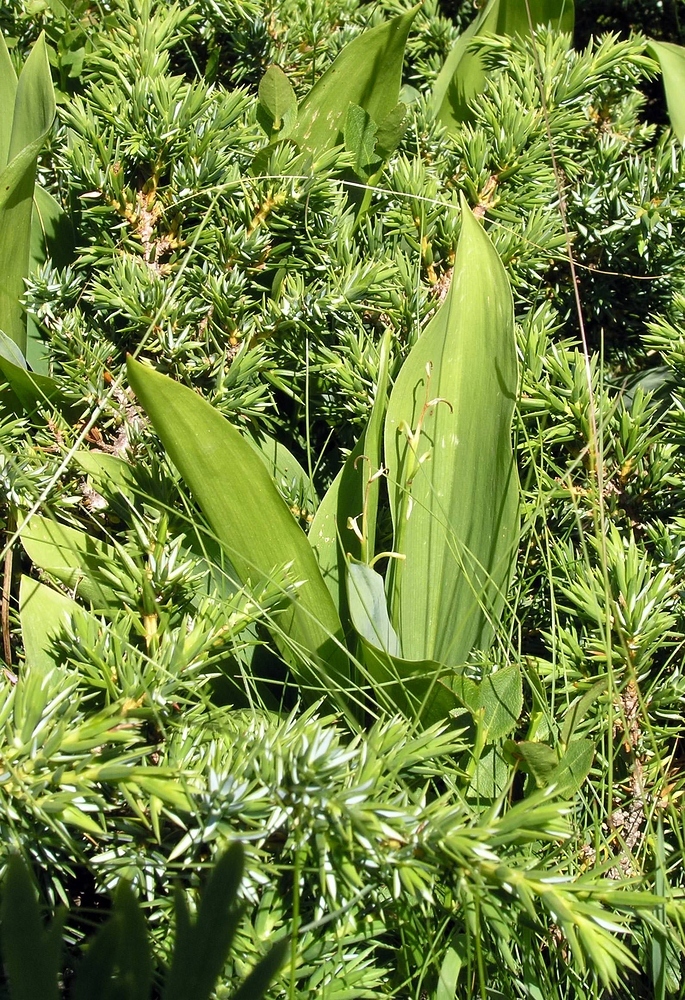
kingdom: Plantae
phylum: Tracheophyta
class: Liliopsida
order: Asparagales
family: Asparagaceae
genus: Convallaria
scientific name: Convallaria majalis
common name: Lily-of-the-valley
